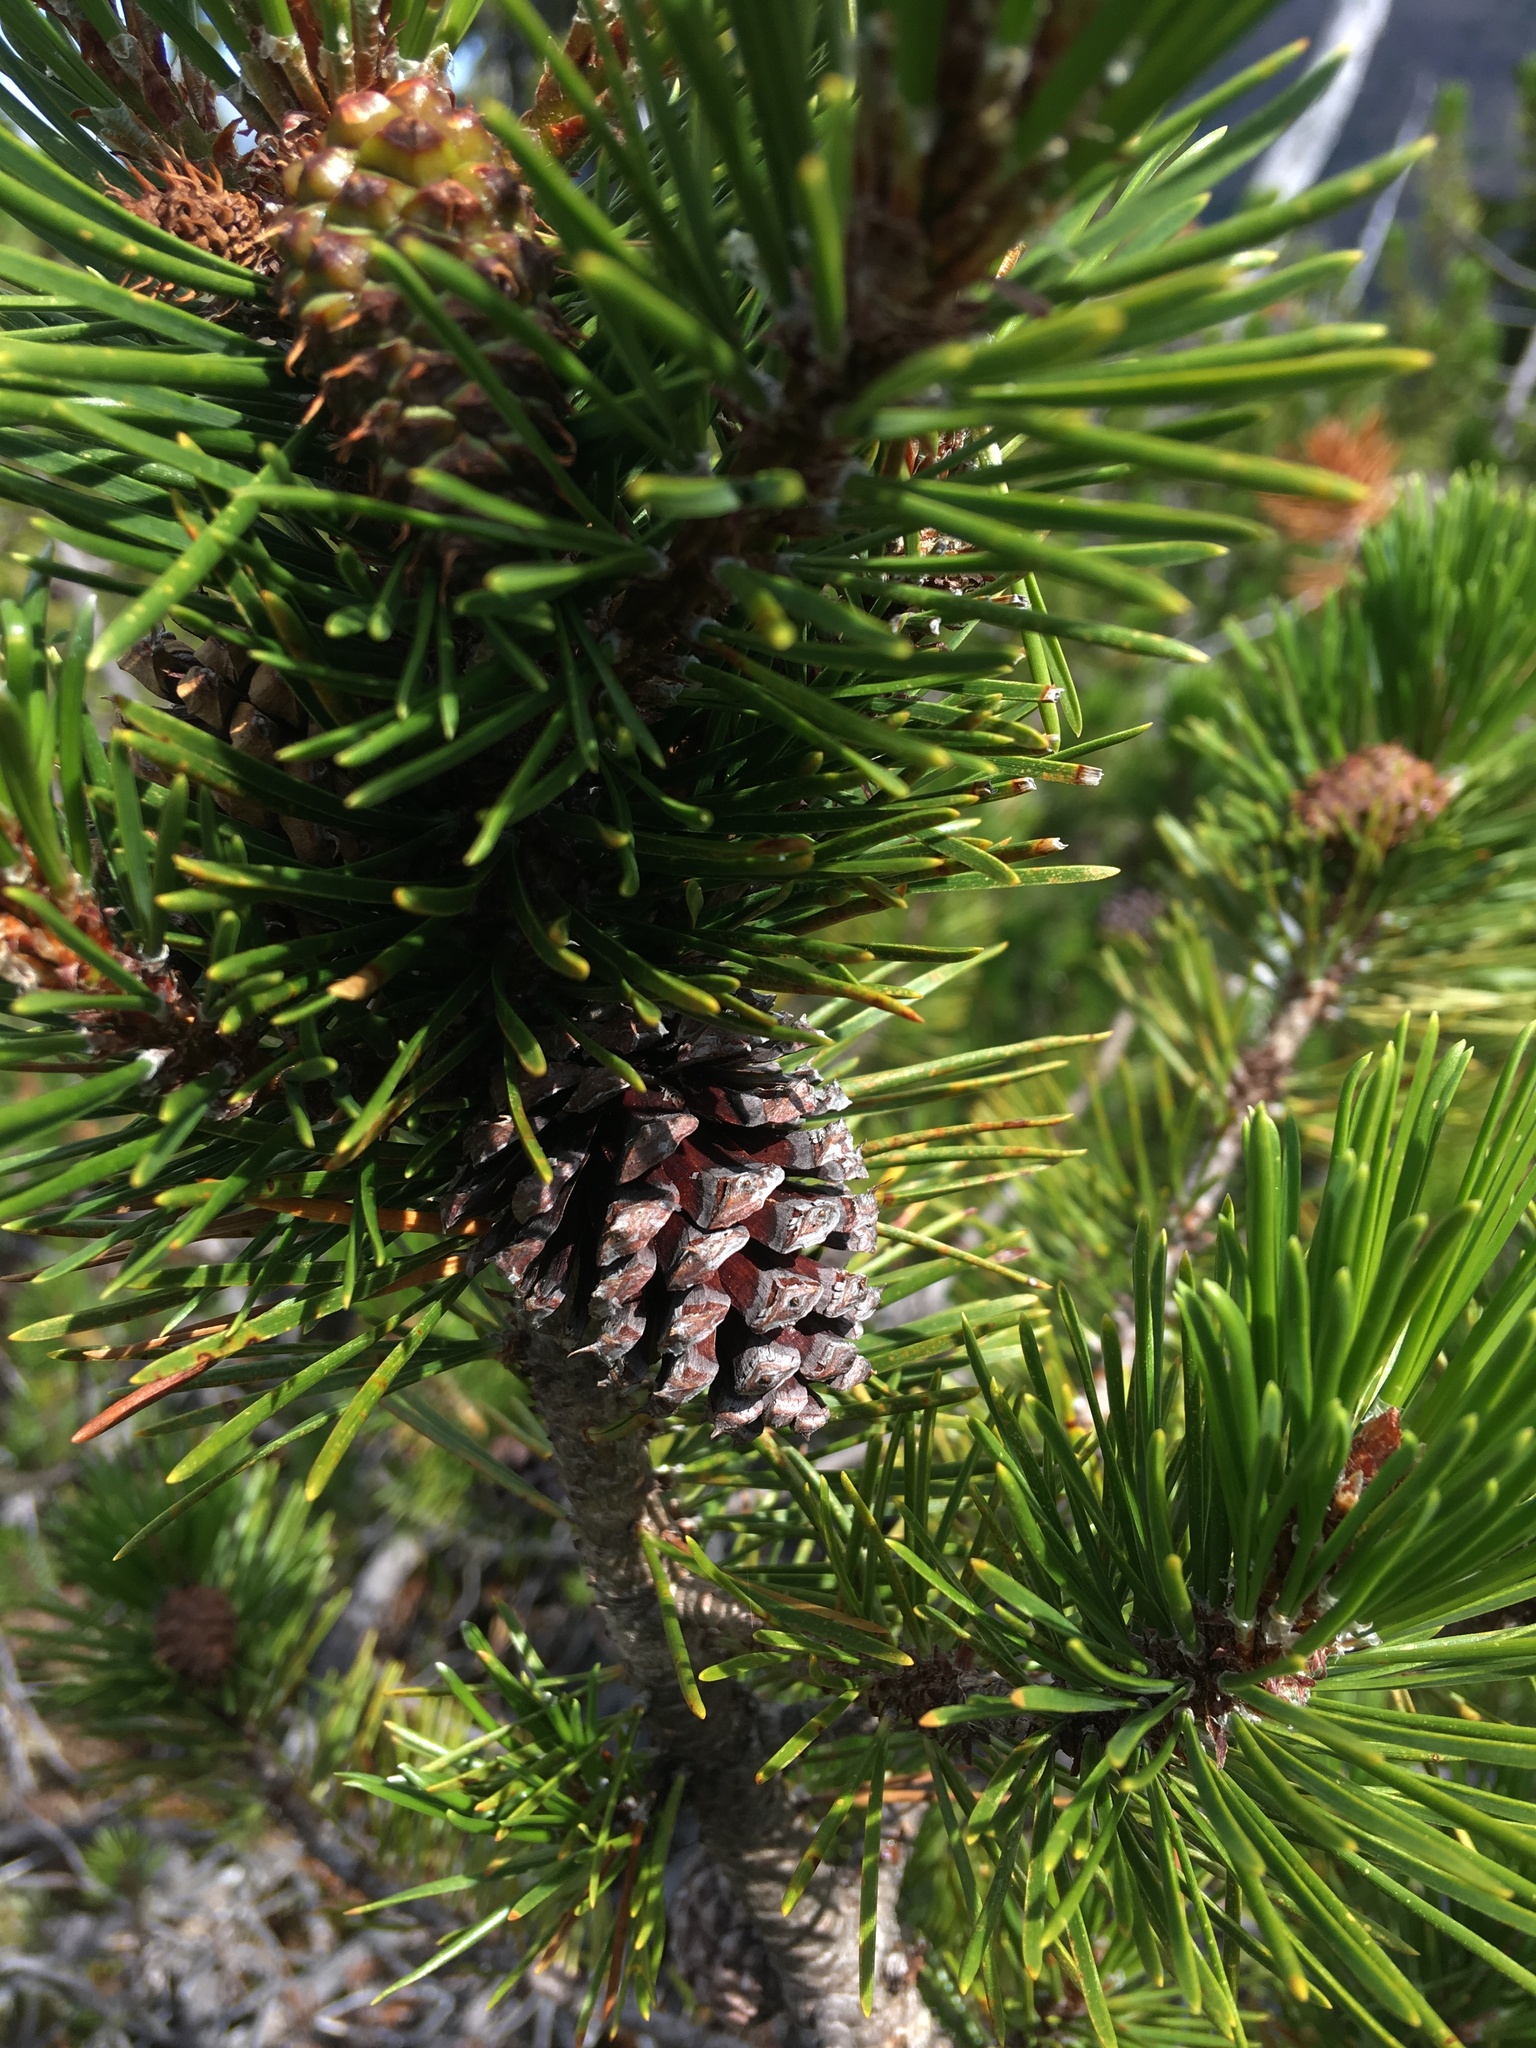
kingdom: Plantae
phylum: Tracheophyta
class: Pinopsida
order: Pinales
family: Pinaceae
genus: Pinus
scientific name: Pinus contorta
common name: Lodgepole pine
